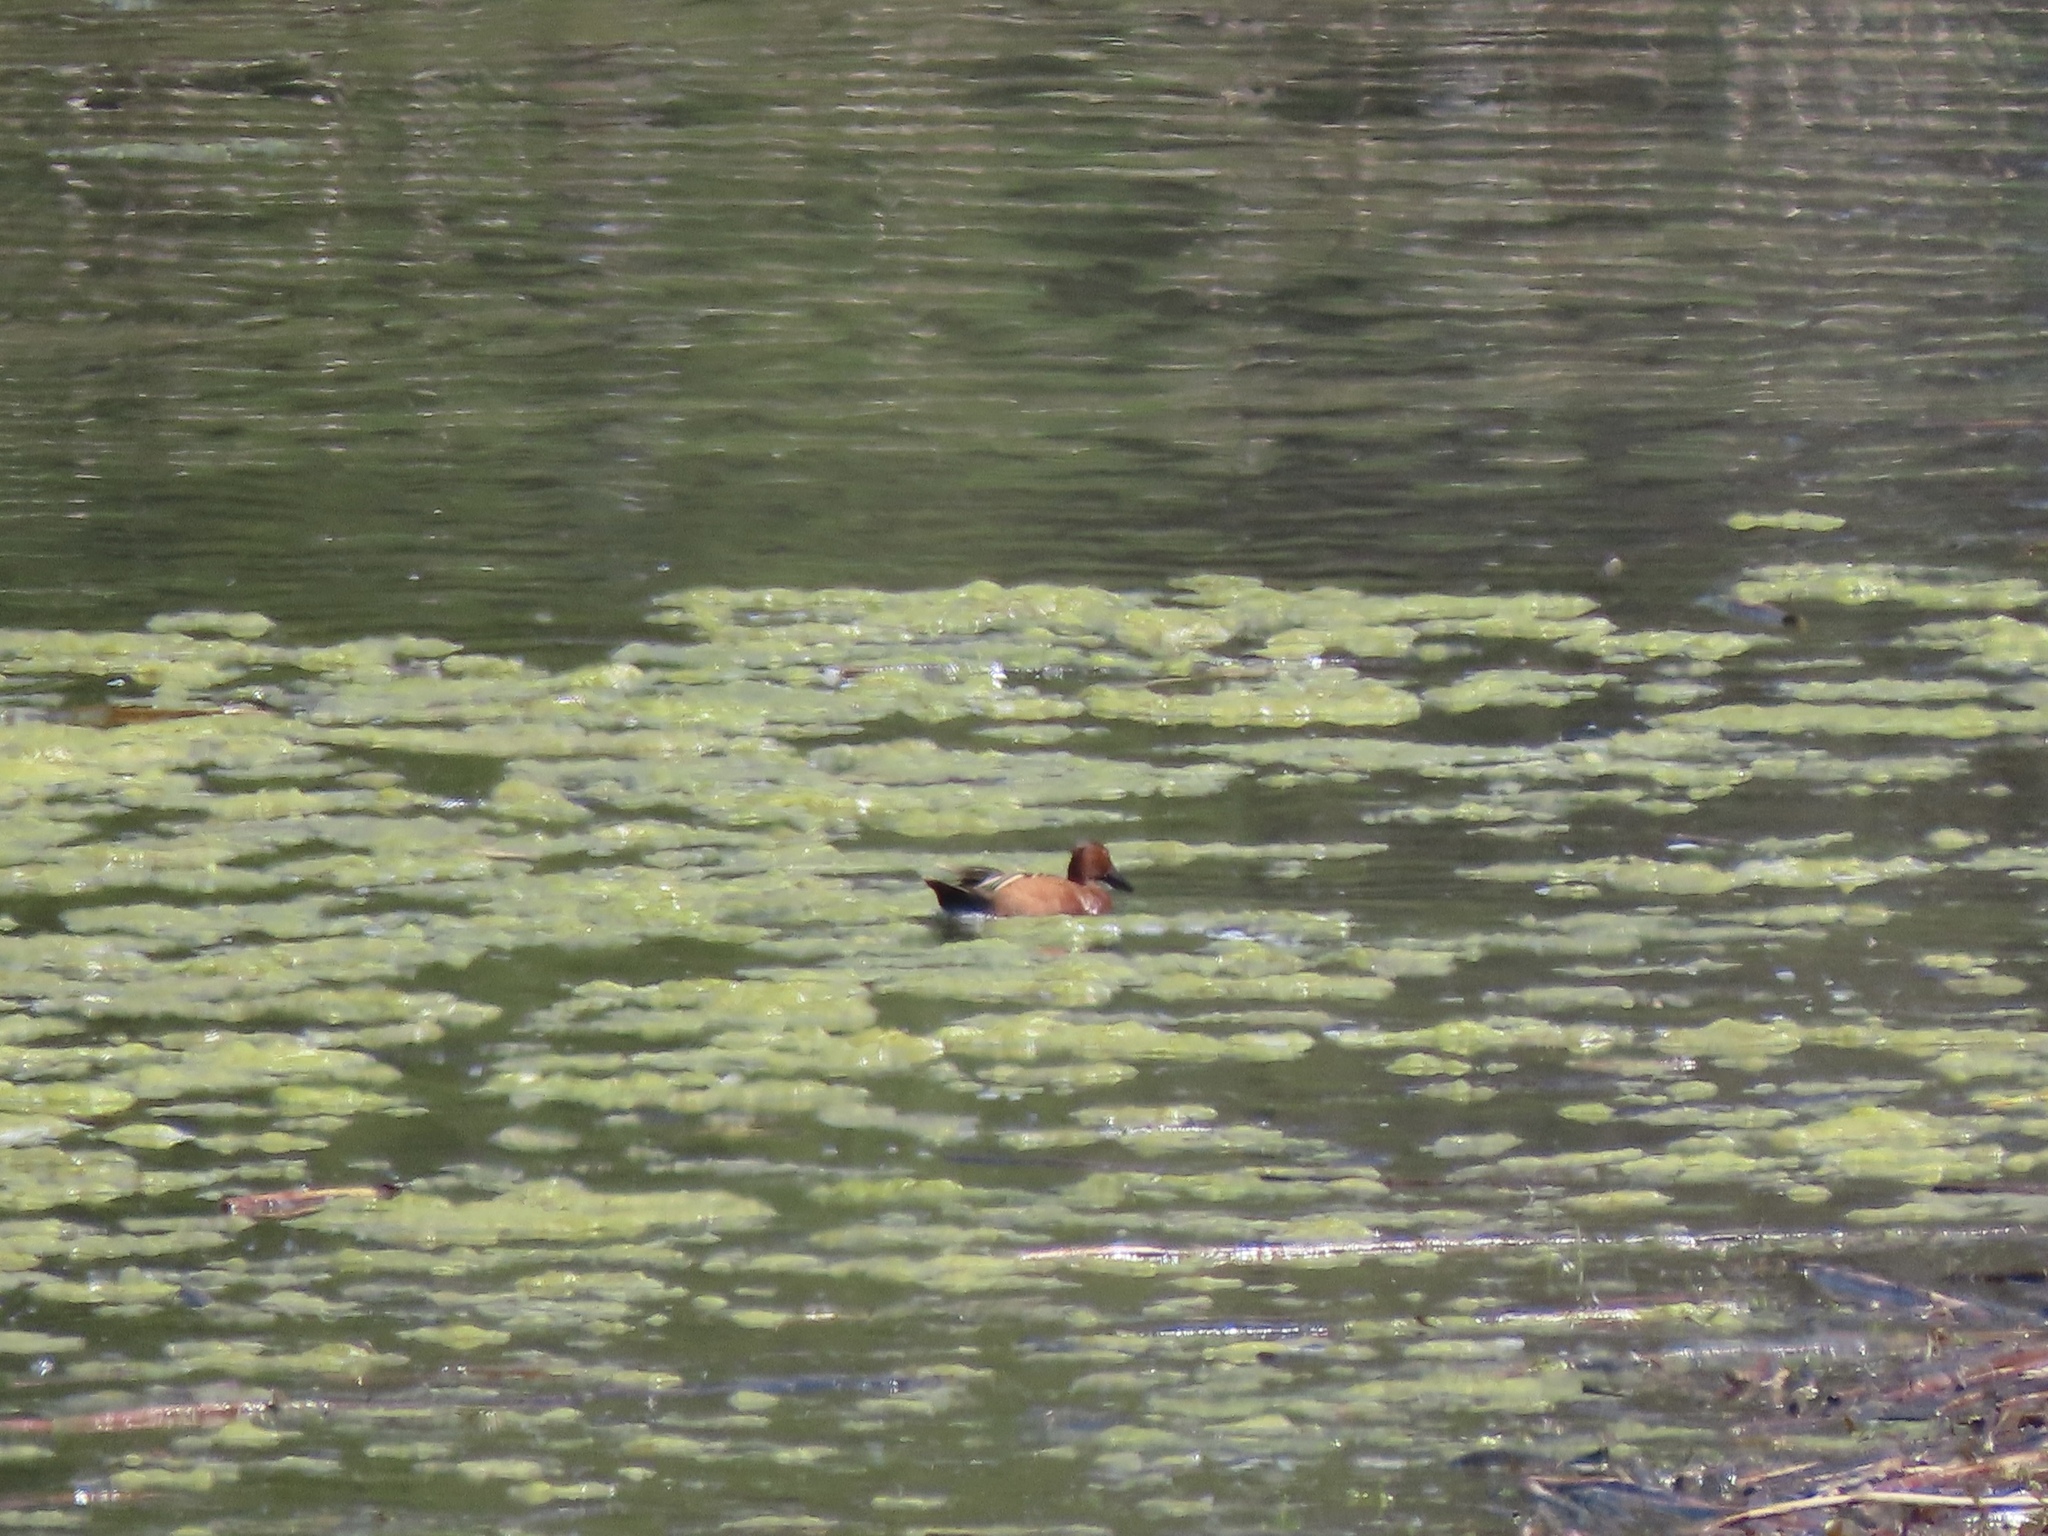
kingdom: Animalia
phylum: Chordata
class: Aves
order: Anseriformes
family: Anatidae
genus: Spatula
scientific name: Spatula cyanoptera
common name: Cinnamon teal
